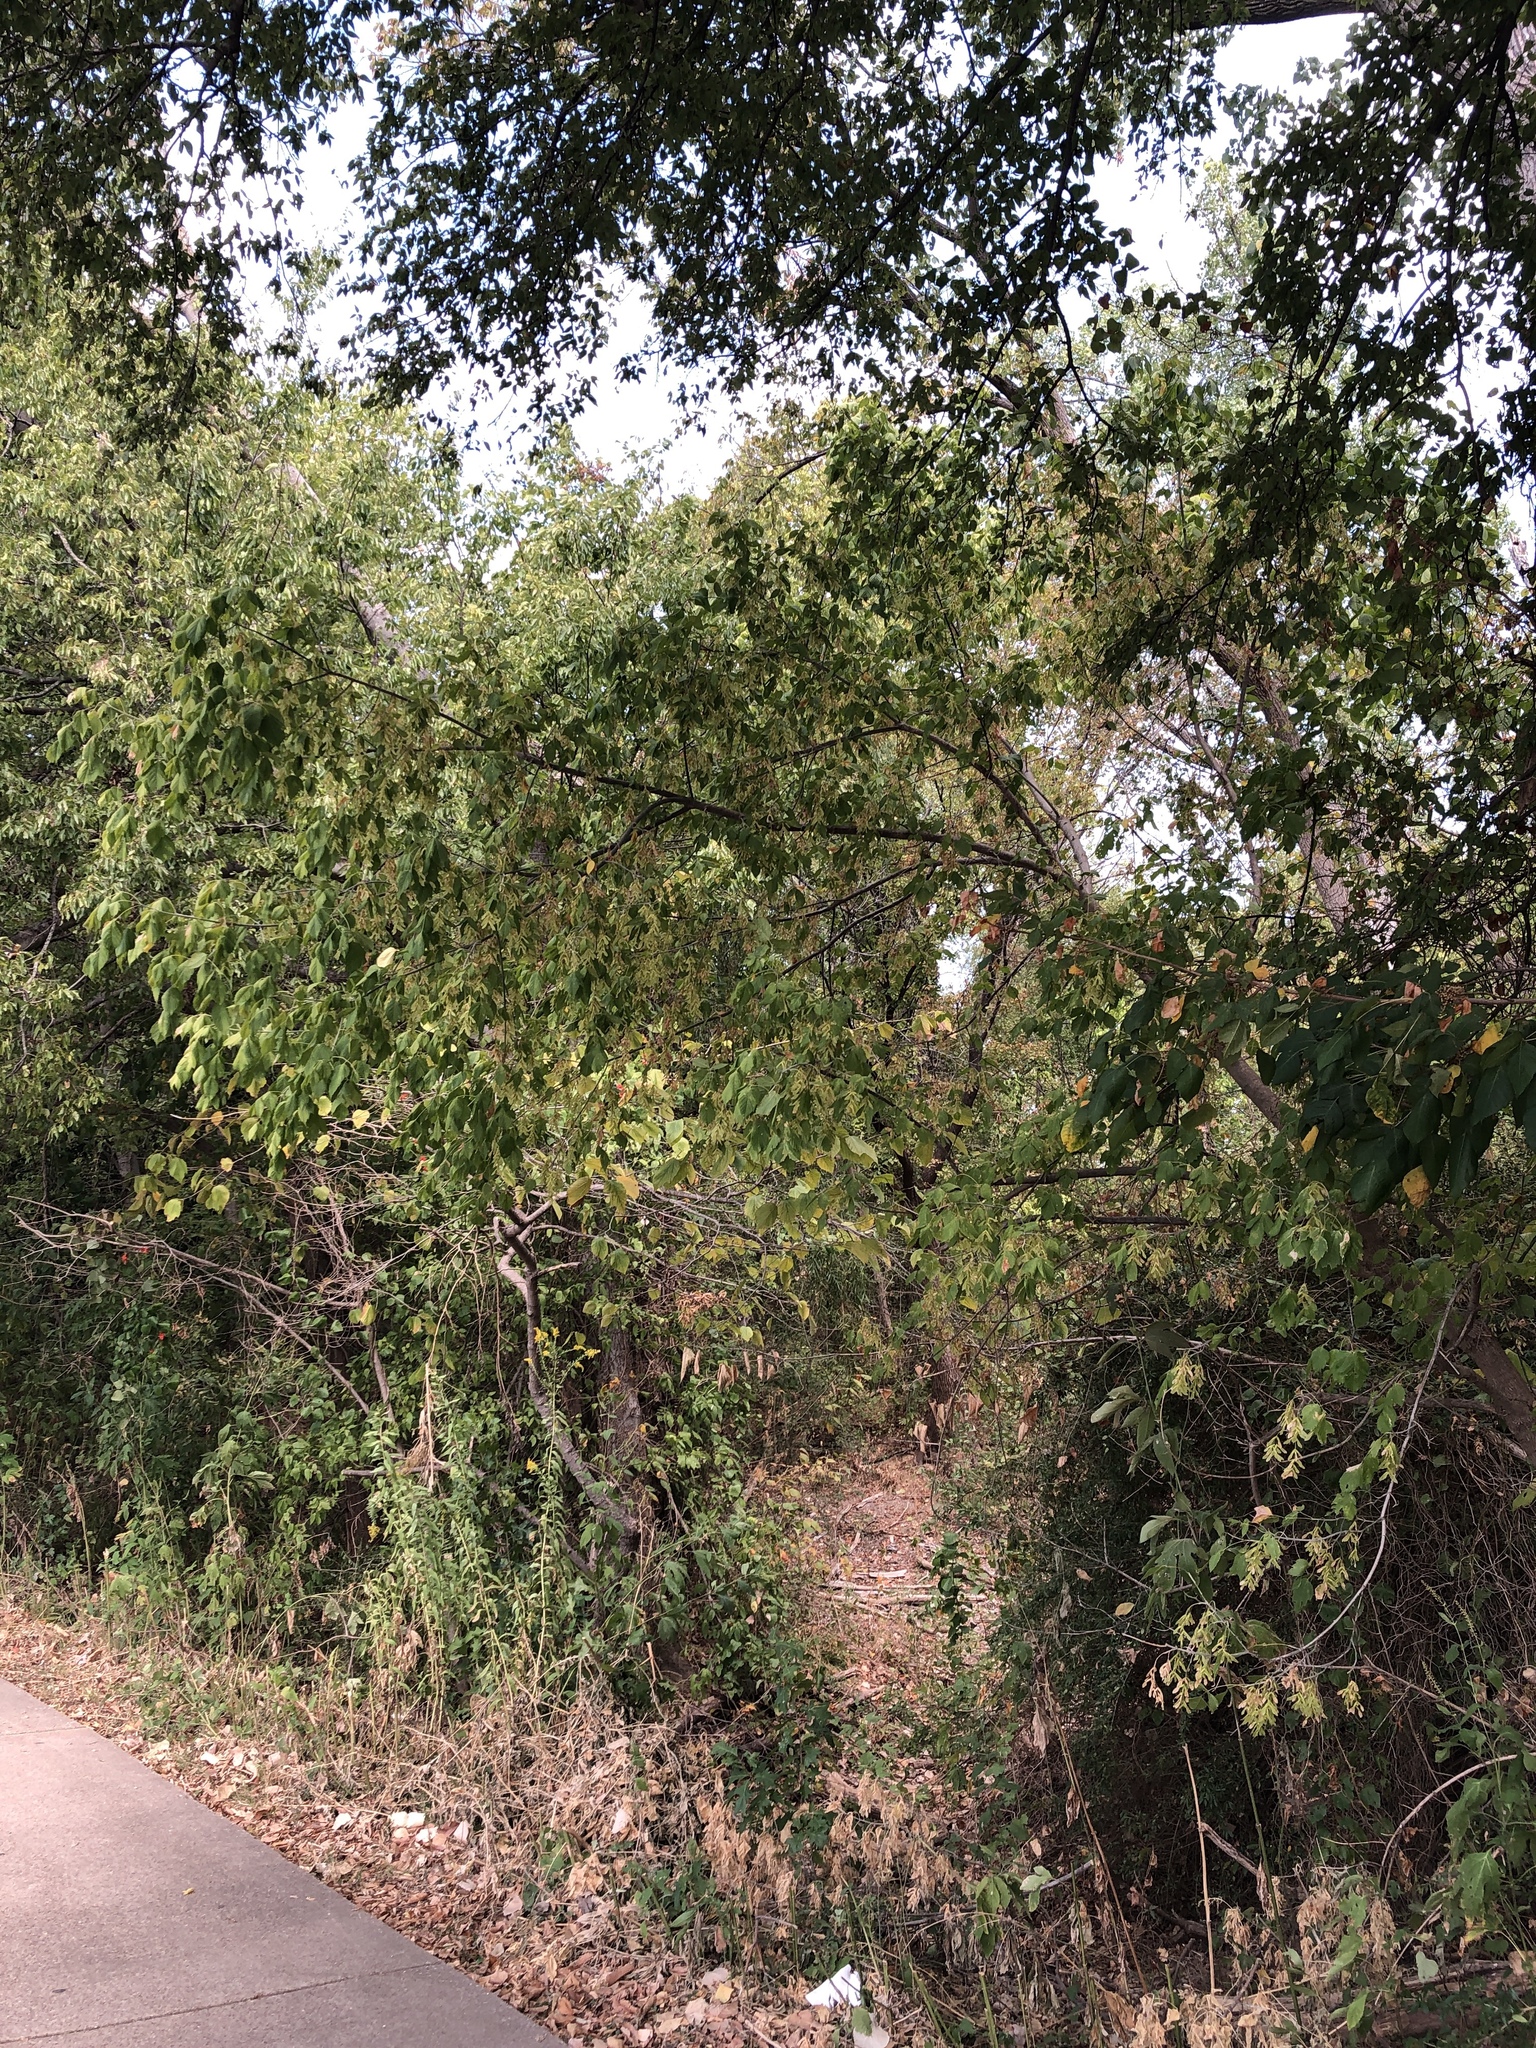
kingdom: Plantae
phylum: Tracheophyta
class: Magnoliopsida
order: Sapindales
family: Sapindaceae
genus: Acer
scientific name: Acer negundo
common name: Ashleaf maple
